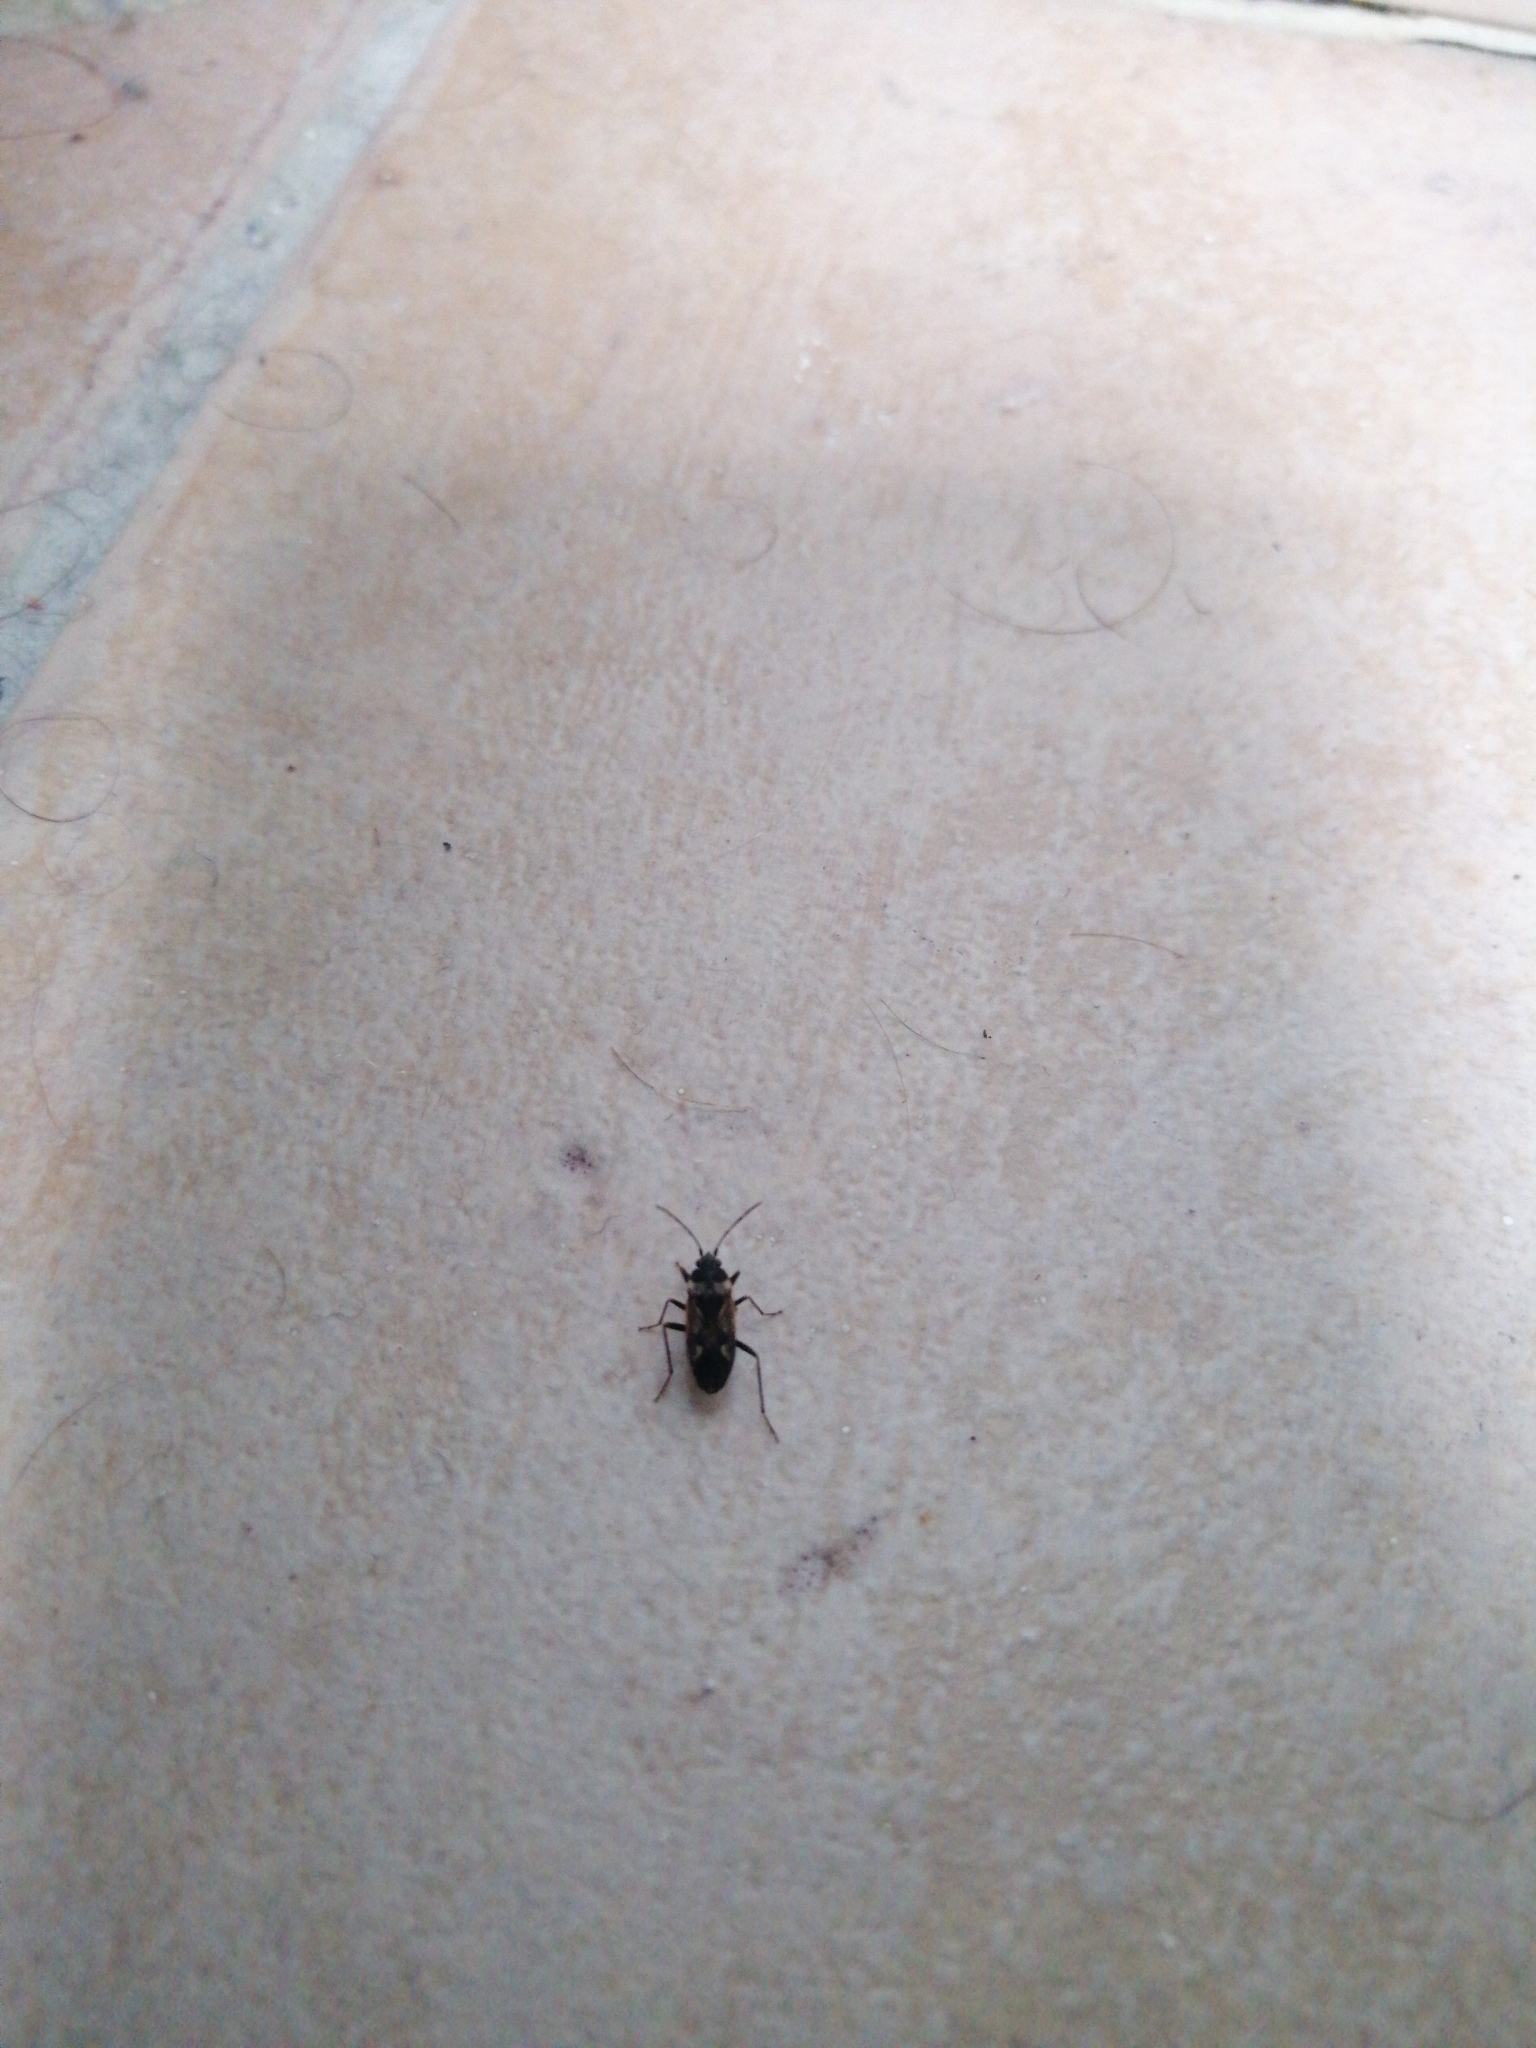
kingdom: Animalia
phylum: Arthropoda
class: Insecta
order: Hemiptera
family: Rhyparochromidae
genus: Rhyparochromus
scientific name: Rhyparochromus vulgaris
